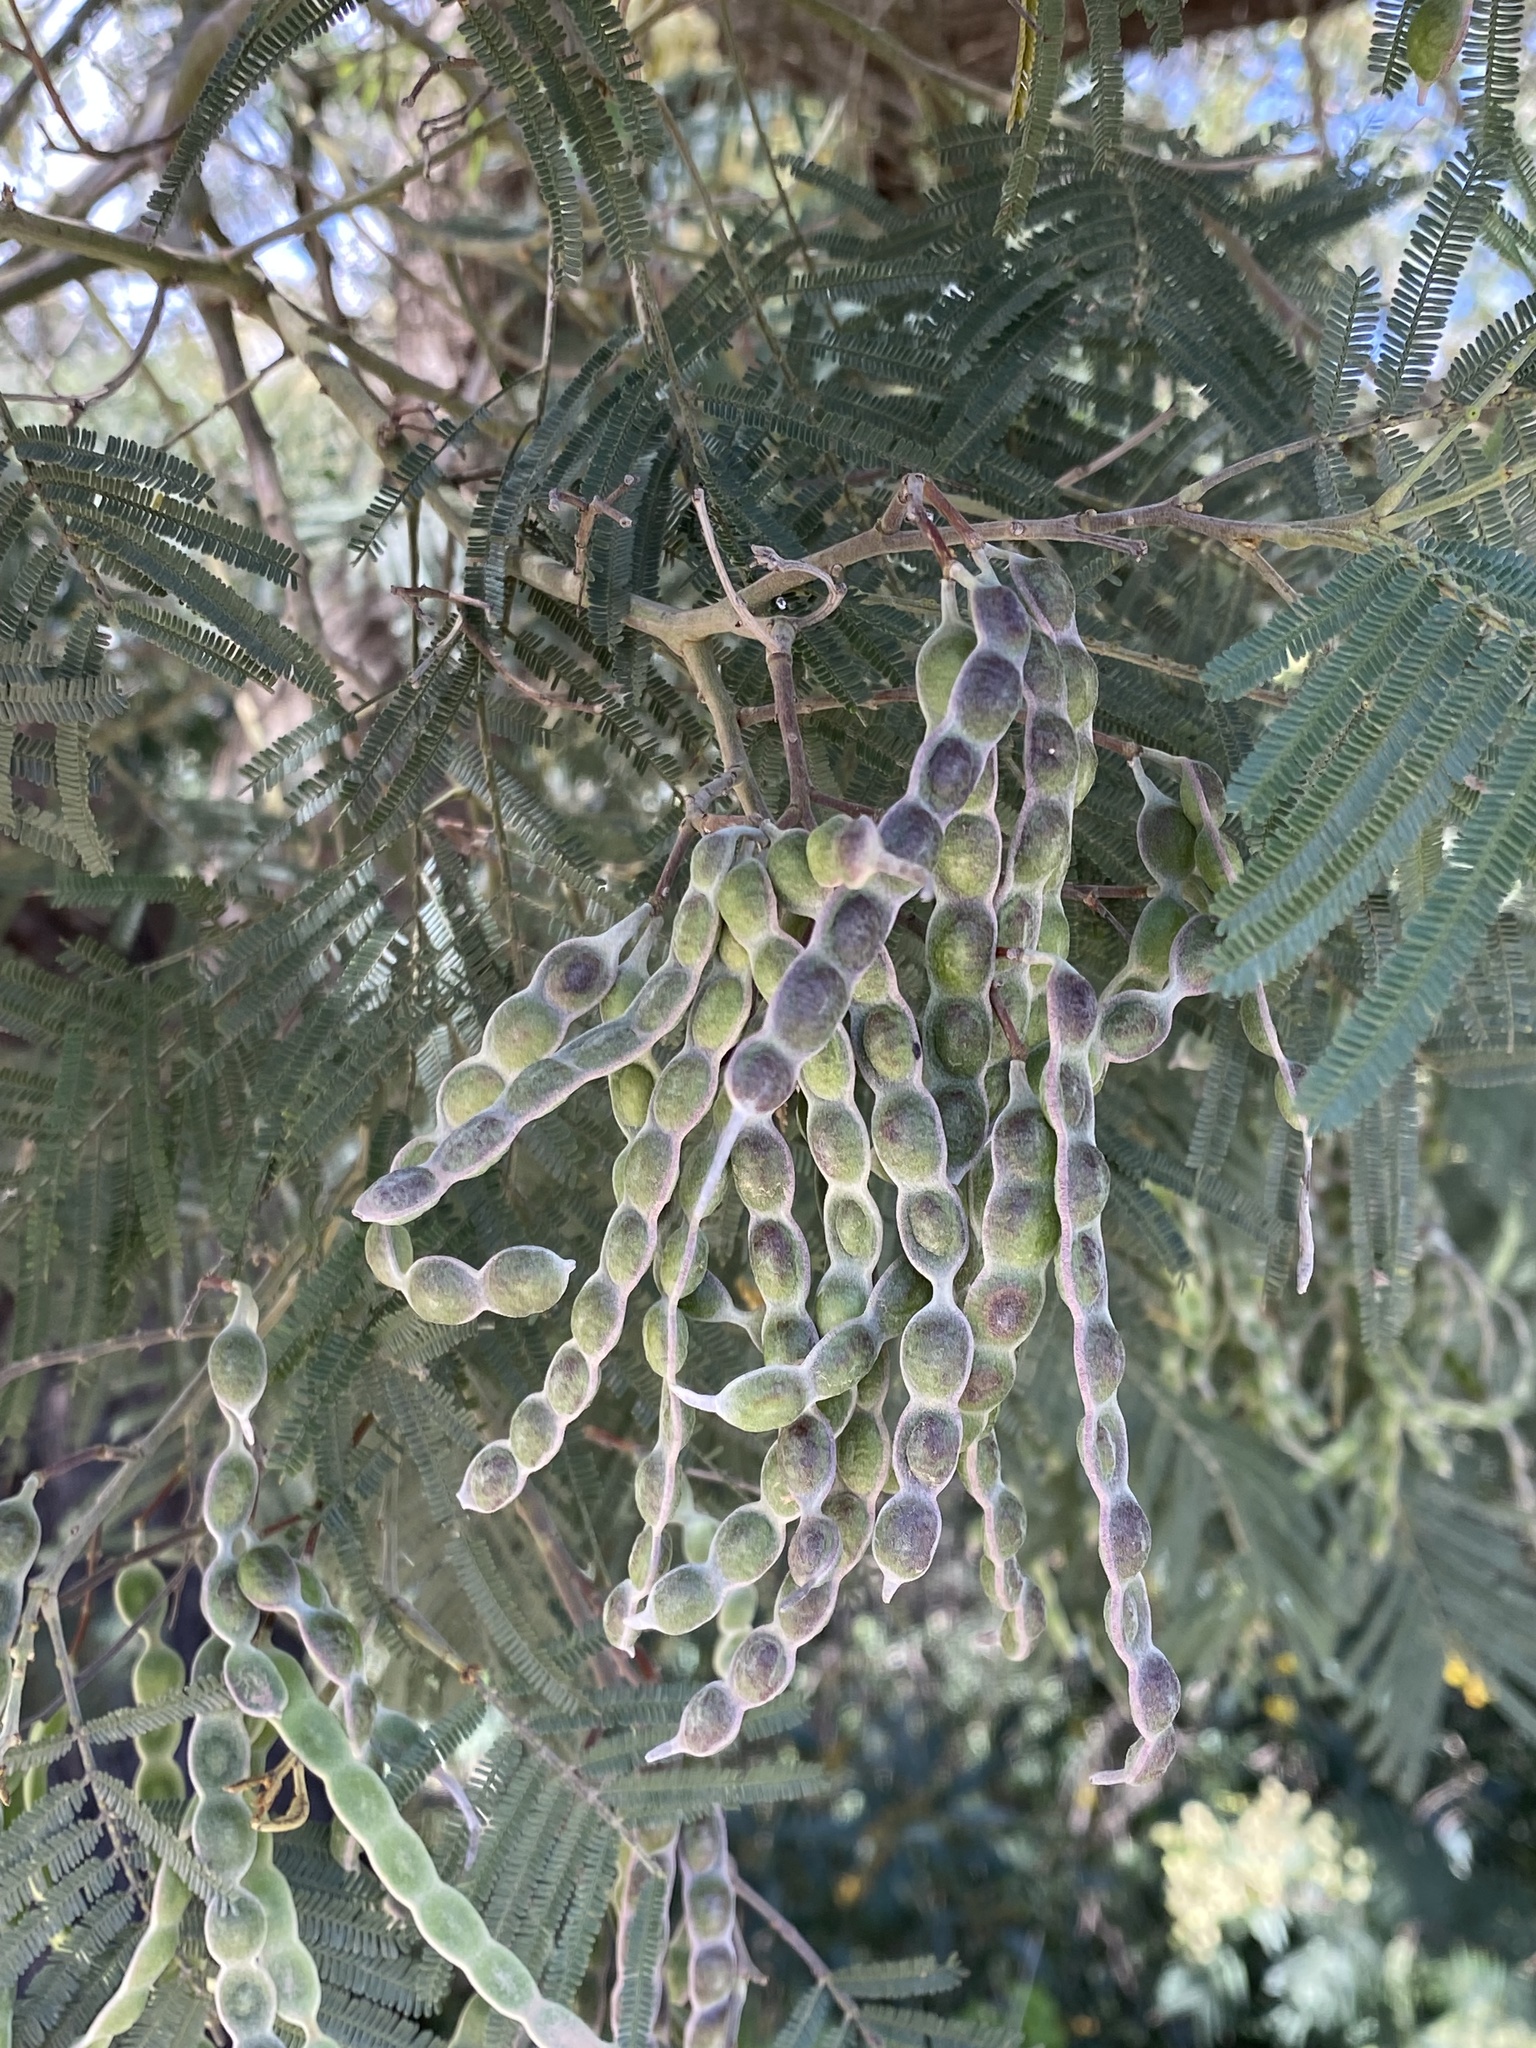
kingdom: Plantae
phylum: Tracheophyta
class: Magnoliopsida
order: Fabales
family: Fabaceae
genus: Acacia
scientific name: Acacia mearnsii
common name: Black wattle
